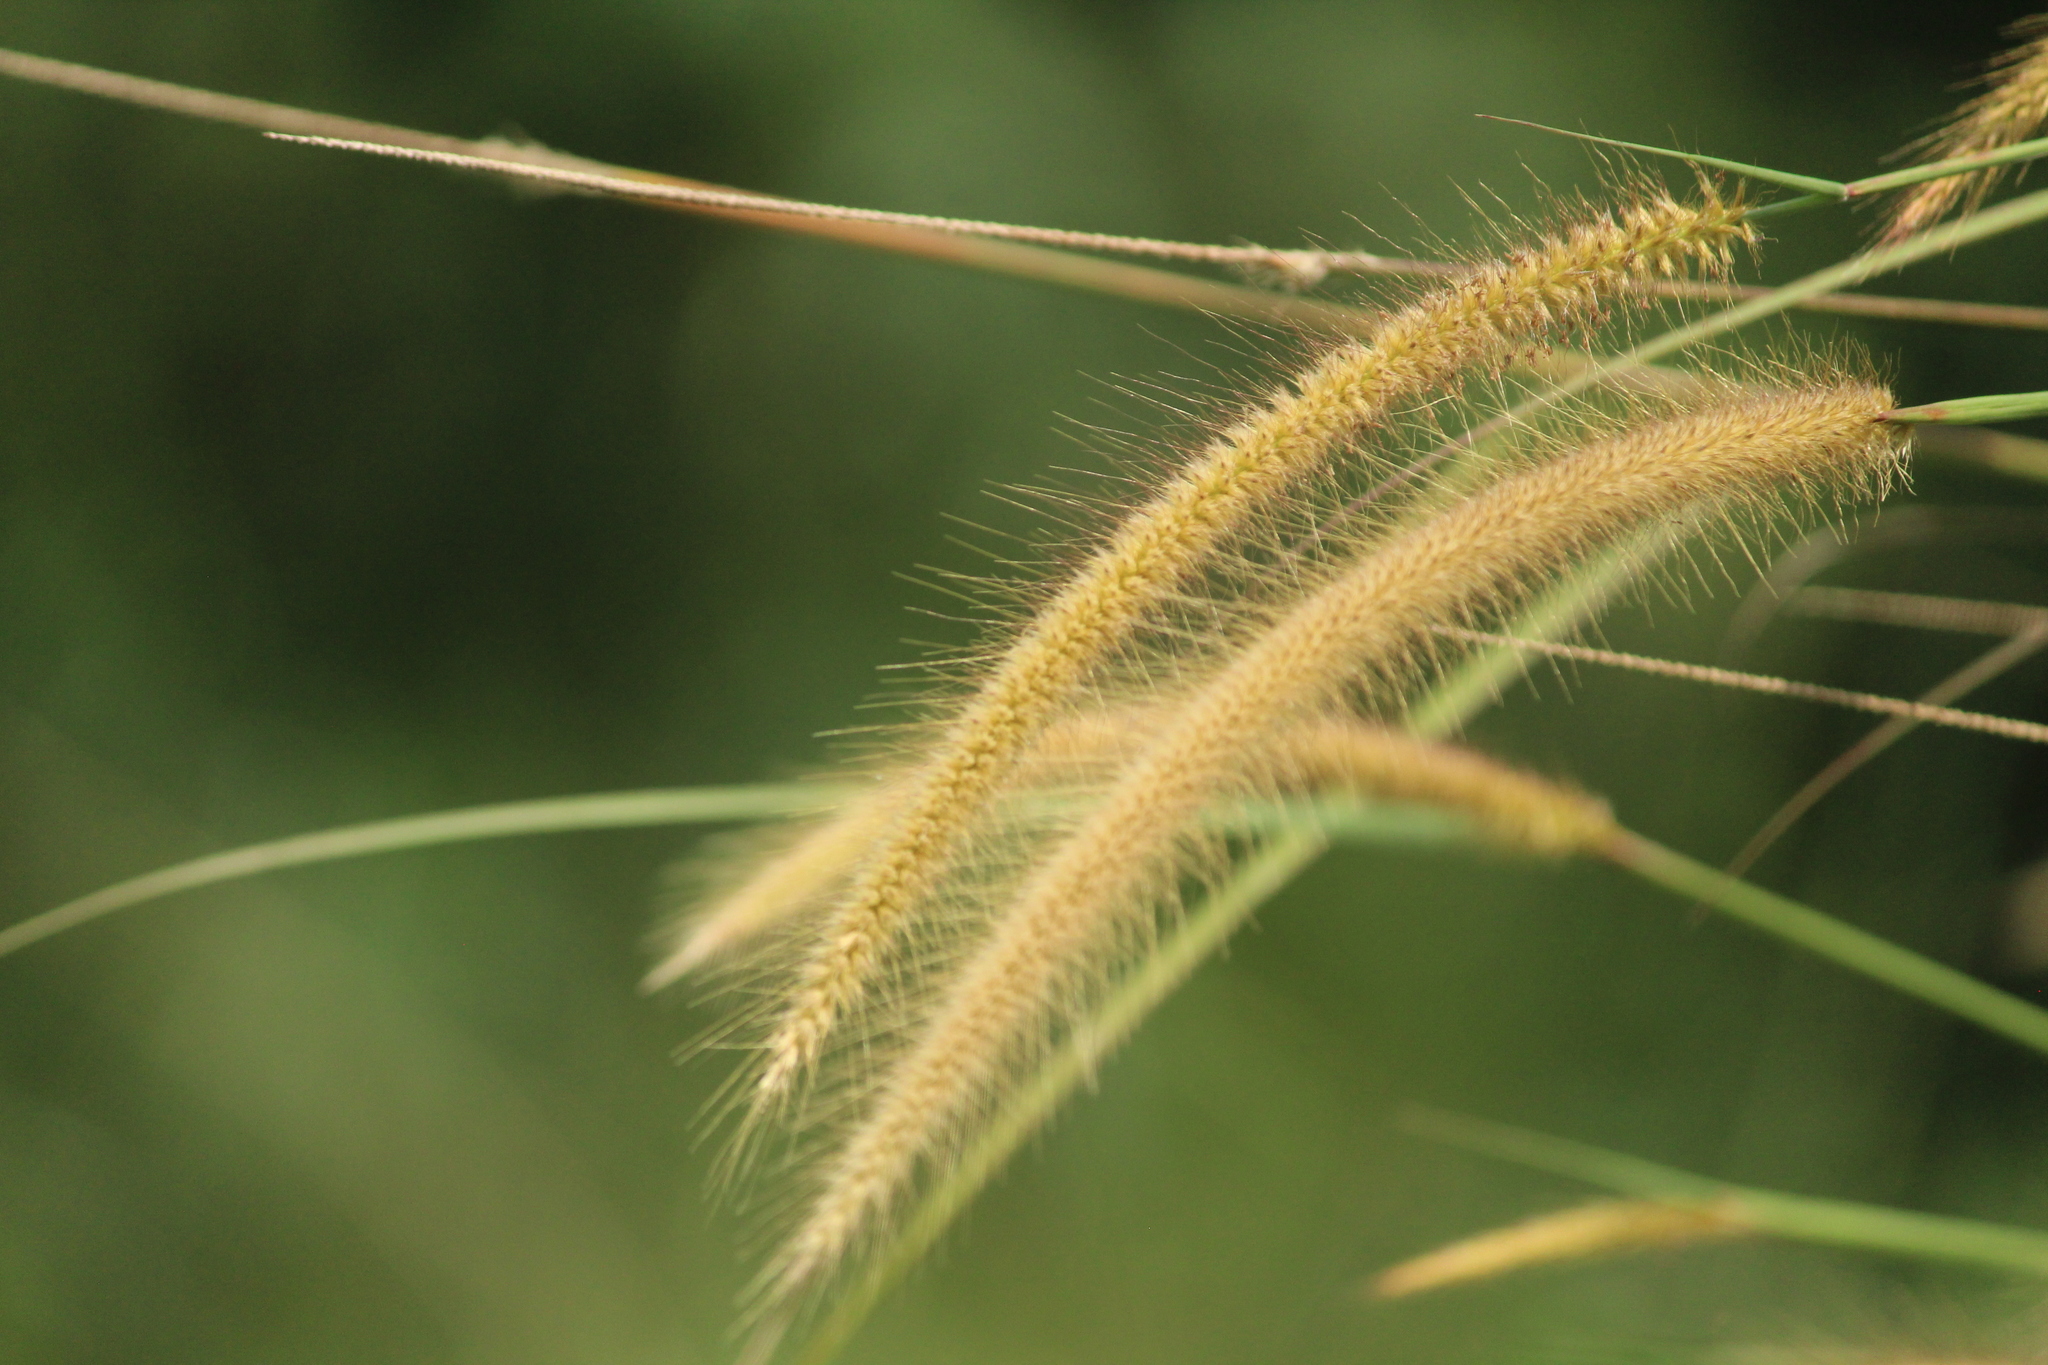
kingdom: Plantae
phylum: Tracheophyta
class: Liliopsida
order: Poales
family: Poaceae
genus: Setaria
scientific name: Setaria pumila
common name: Yellow bristle-grass
